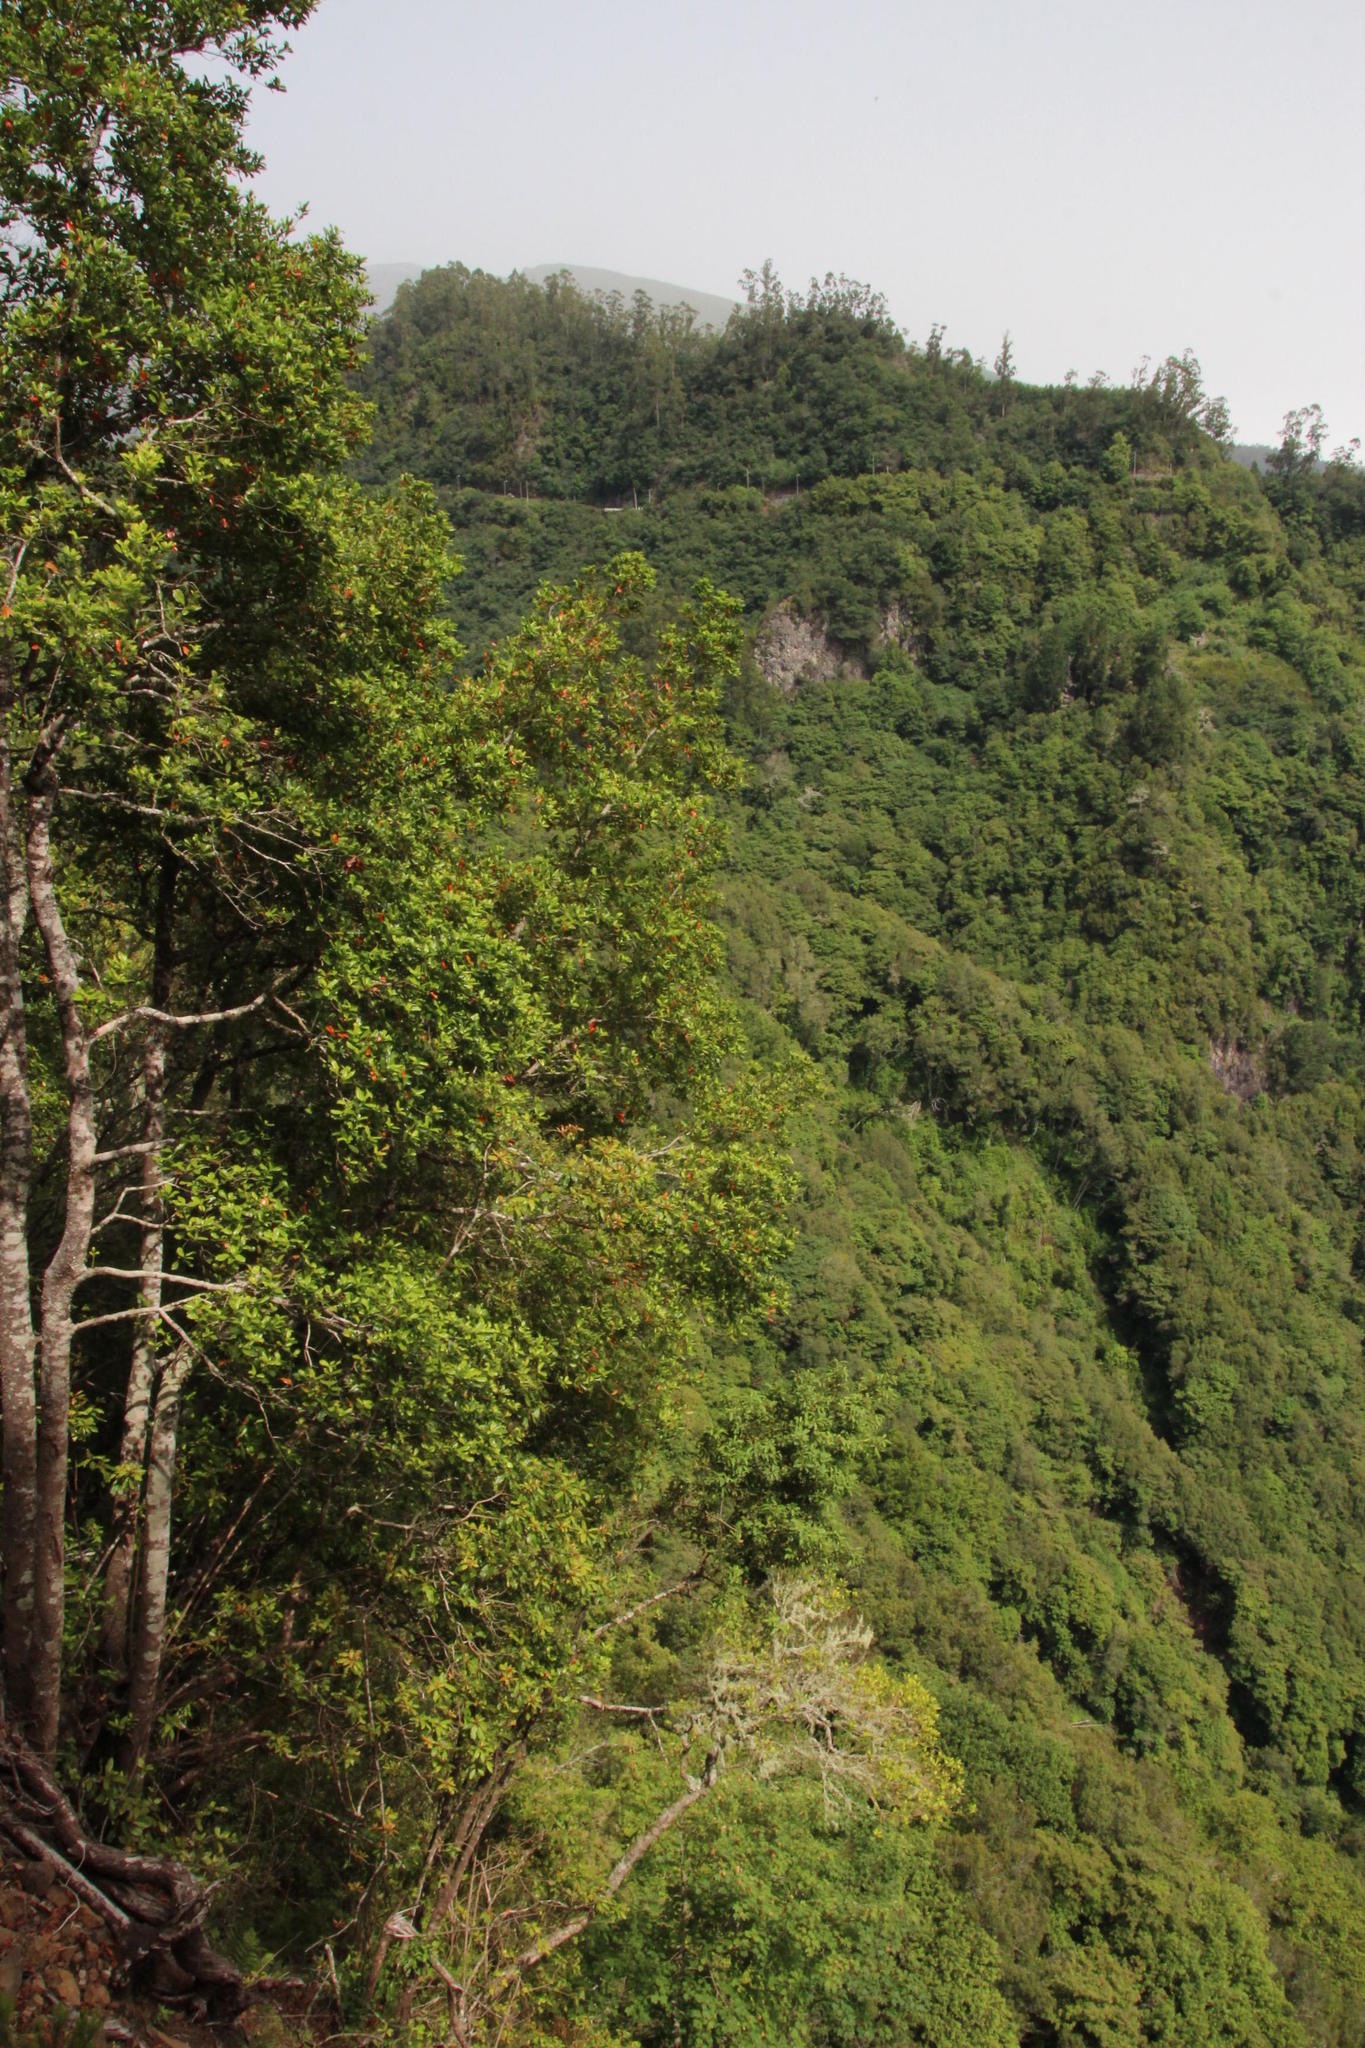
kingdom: Plantae
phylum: Tracheophyta
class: Magnoliopsida
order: Laurales
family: Lauraceae
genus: Persea
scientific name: Persea indica
